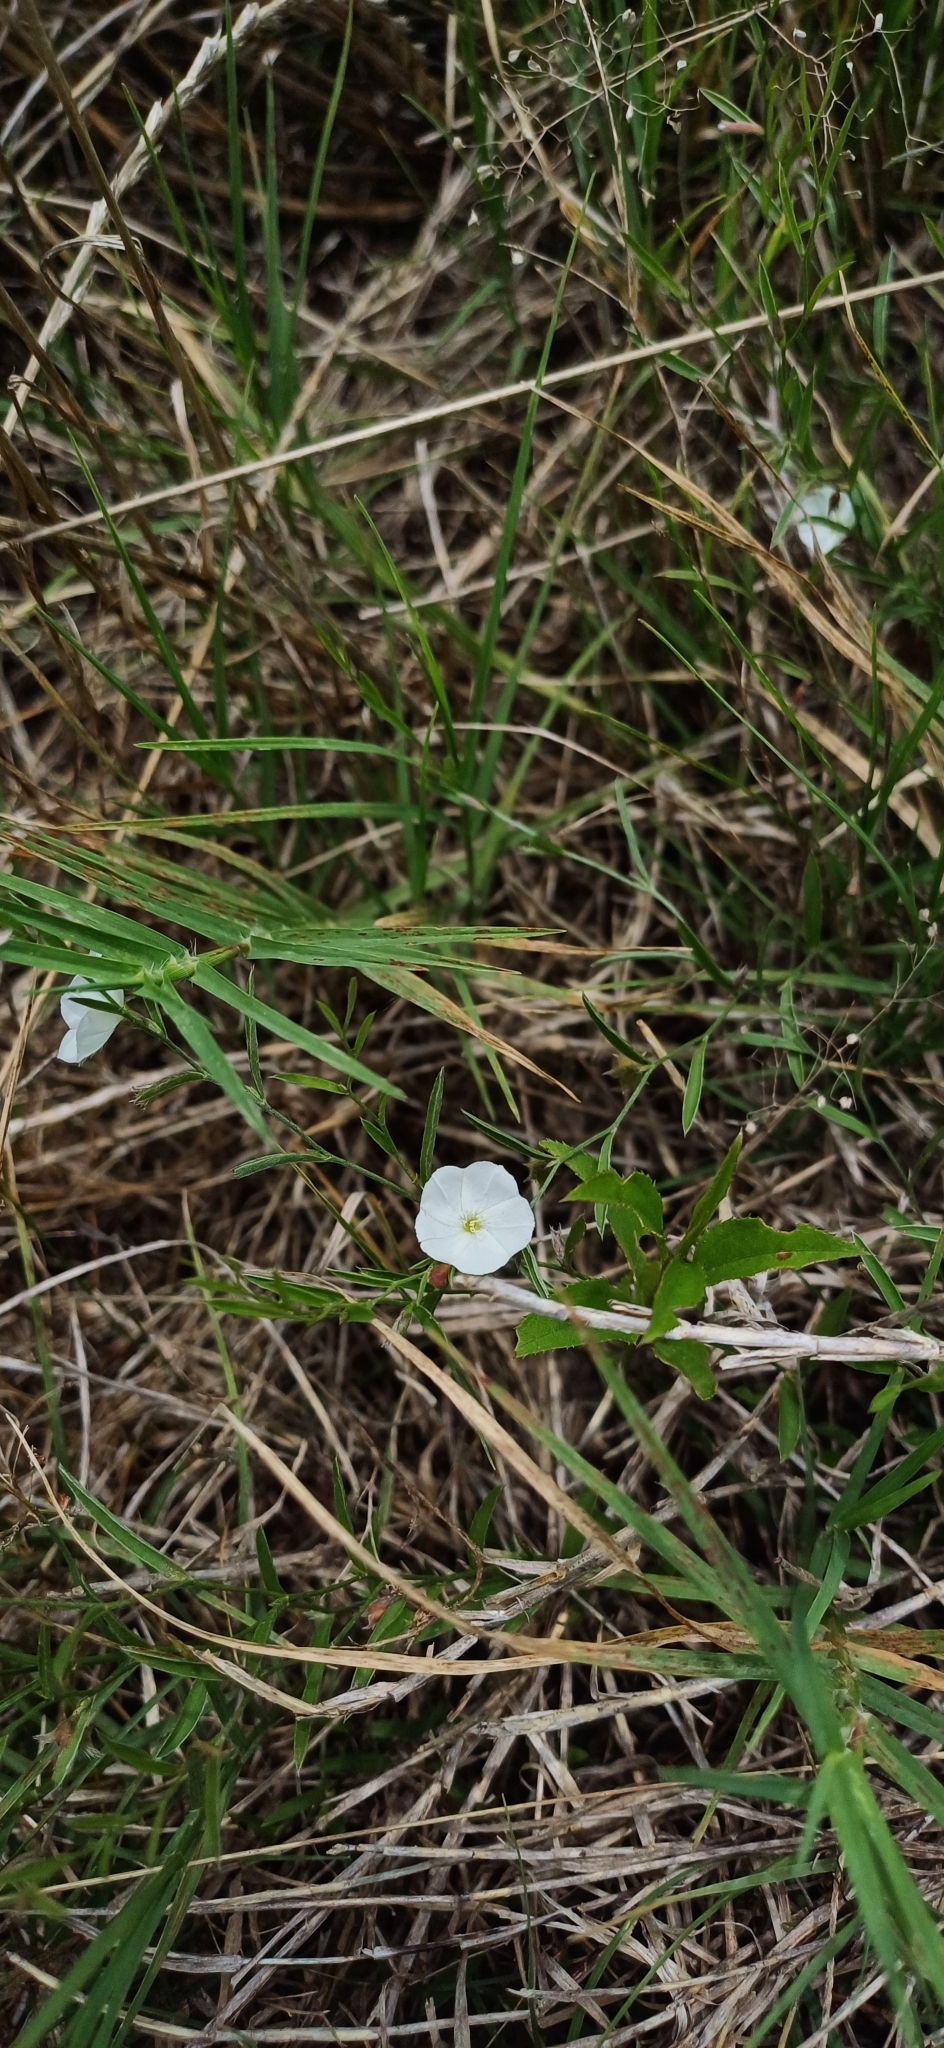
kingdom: Plantae
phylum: Tracheophyta
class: Magnoliopsida
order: Solanales
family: Convolvulaceae
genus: Evolvulus
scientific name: Evolvulus sericeus
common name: Blue dots
